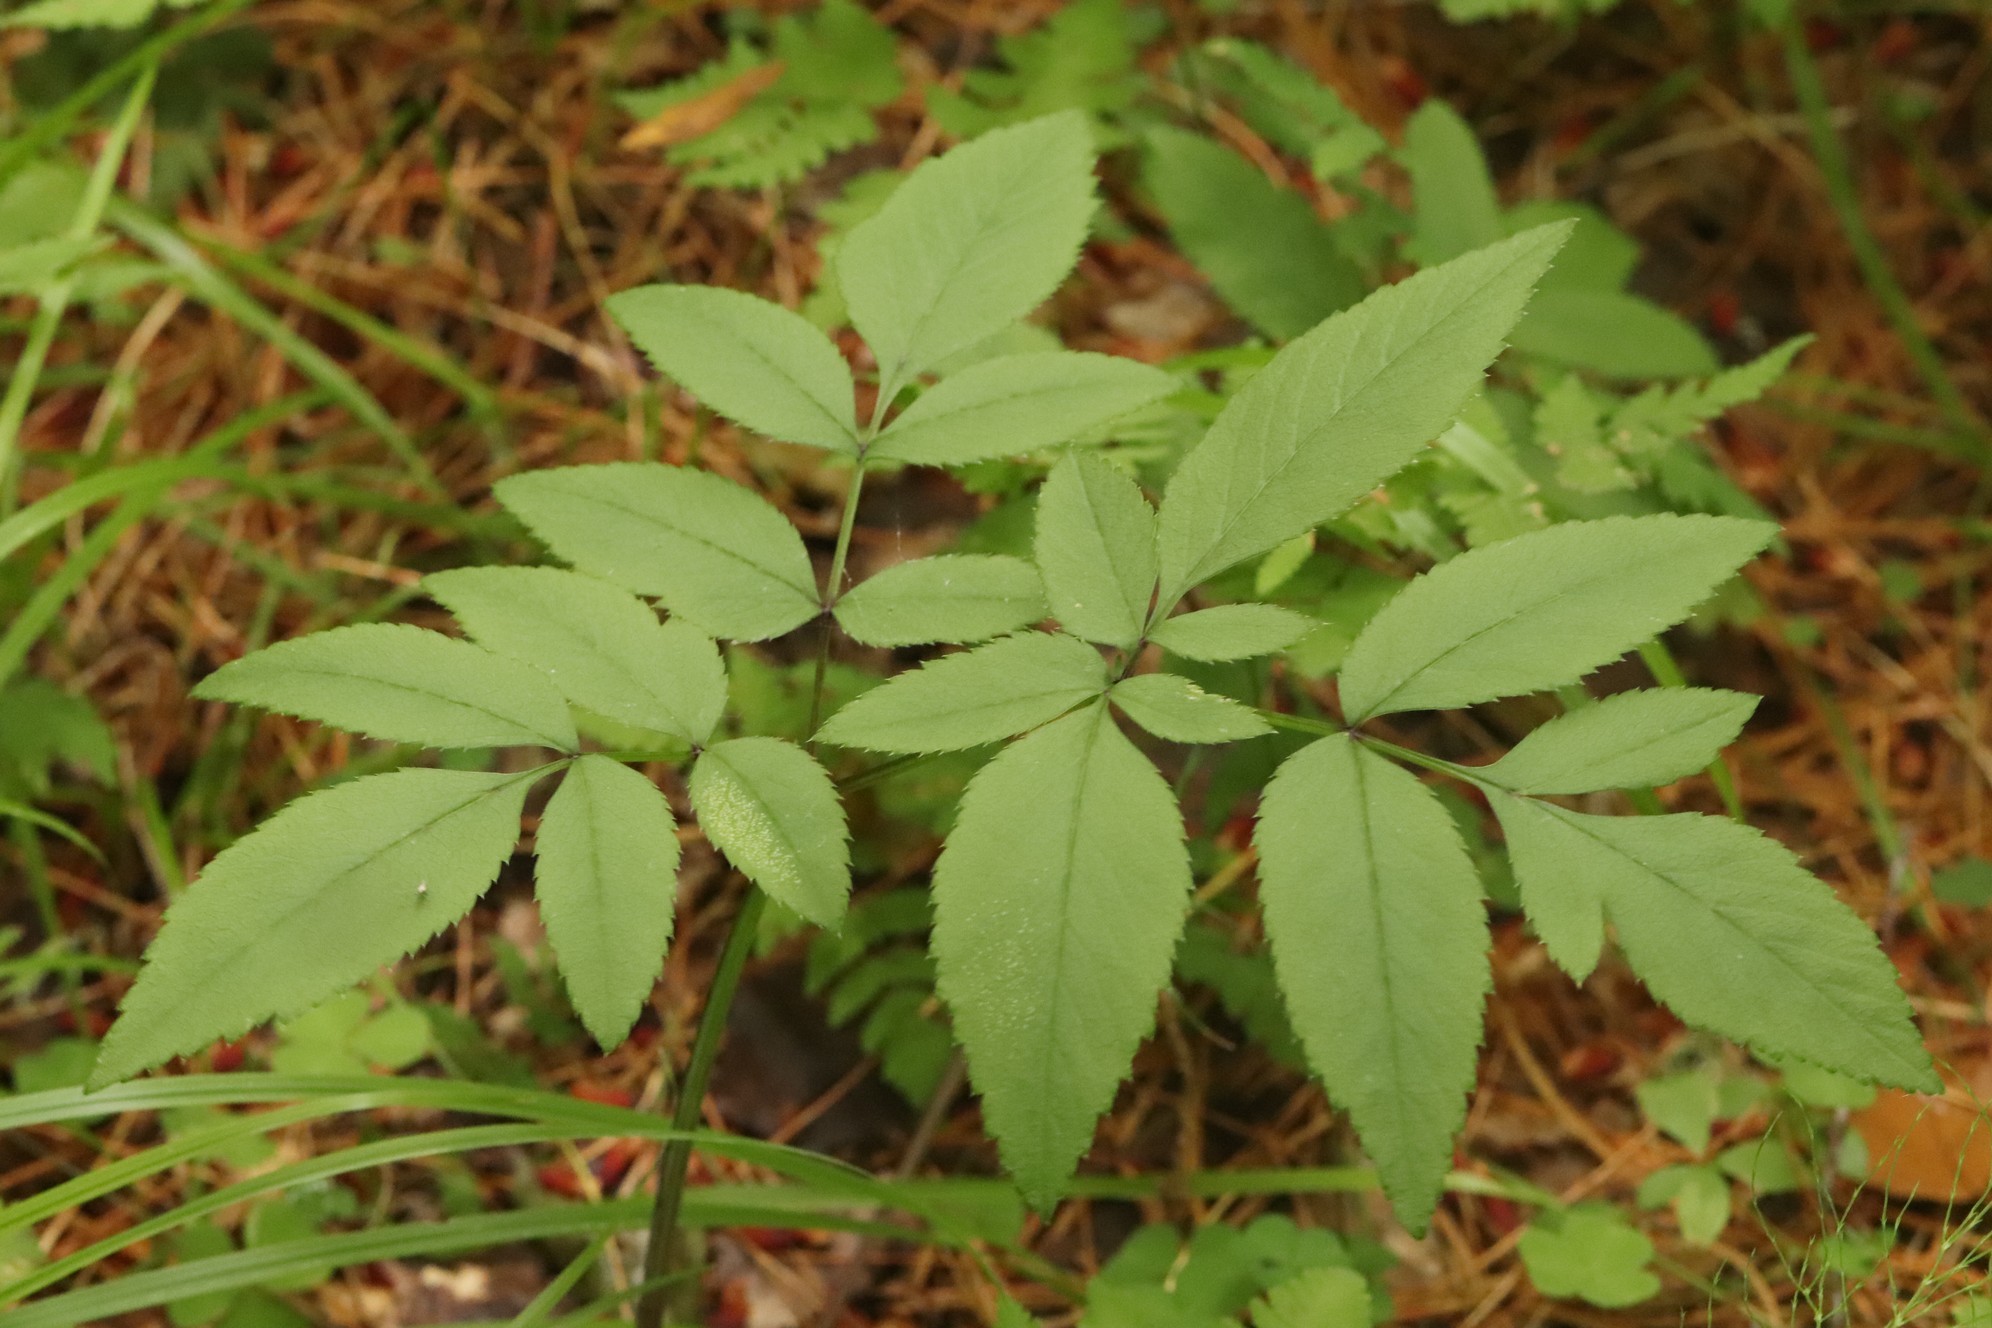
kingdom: Plantae
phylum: Tracheophyta
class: Magnoliopsida
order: Apiales
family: Apiaceae
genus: Angelica
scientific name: Angelica sylvestris
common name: Wild angelica
